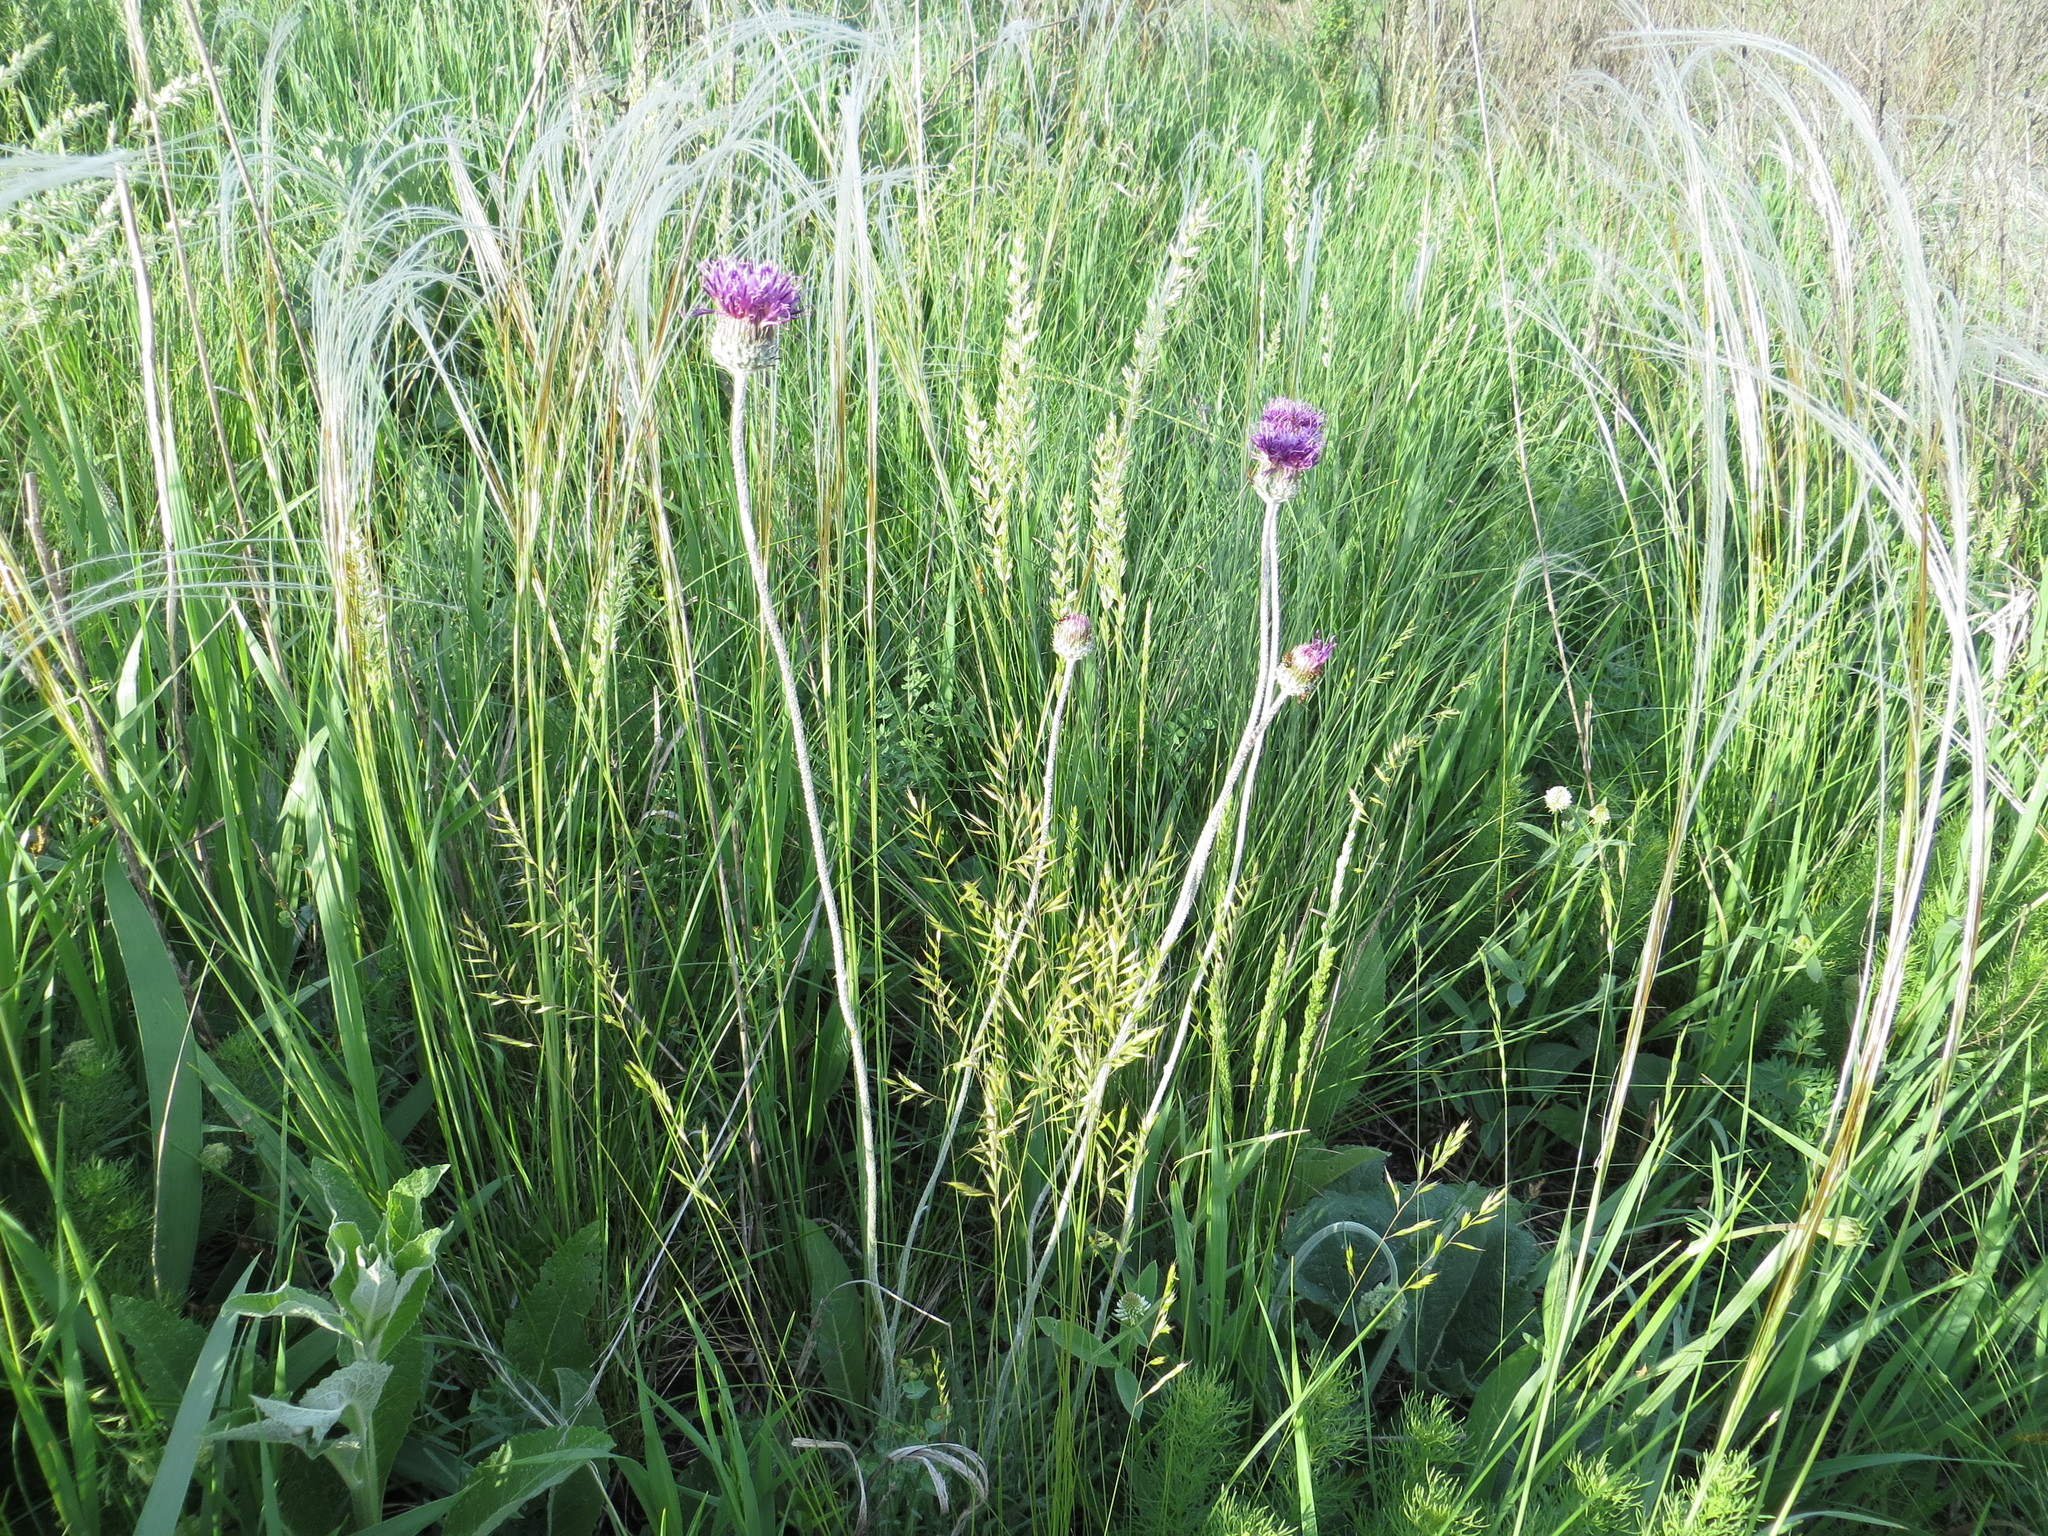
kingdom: Plantae
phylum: Tracheophyta
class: Magnoliopsida
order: Asterales
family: Asteraceae
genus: Jurinea
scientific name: Jurinea arachnoidea
